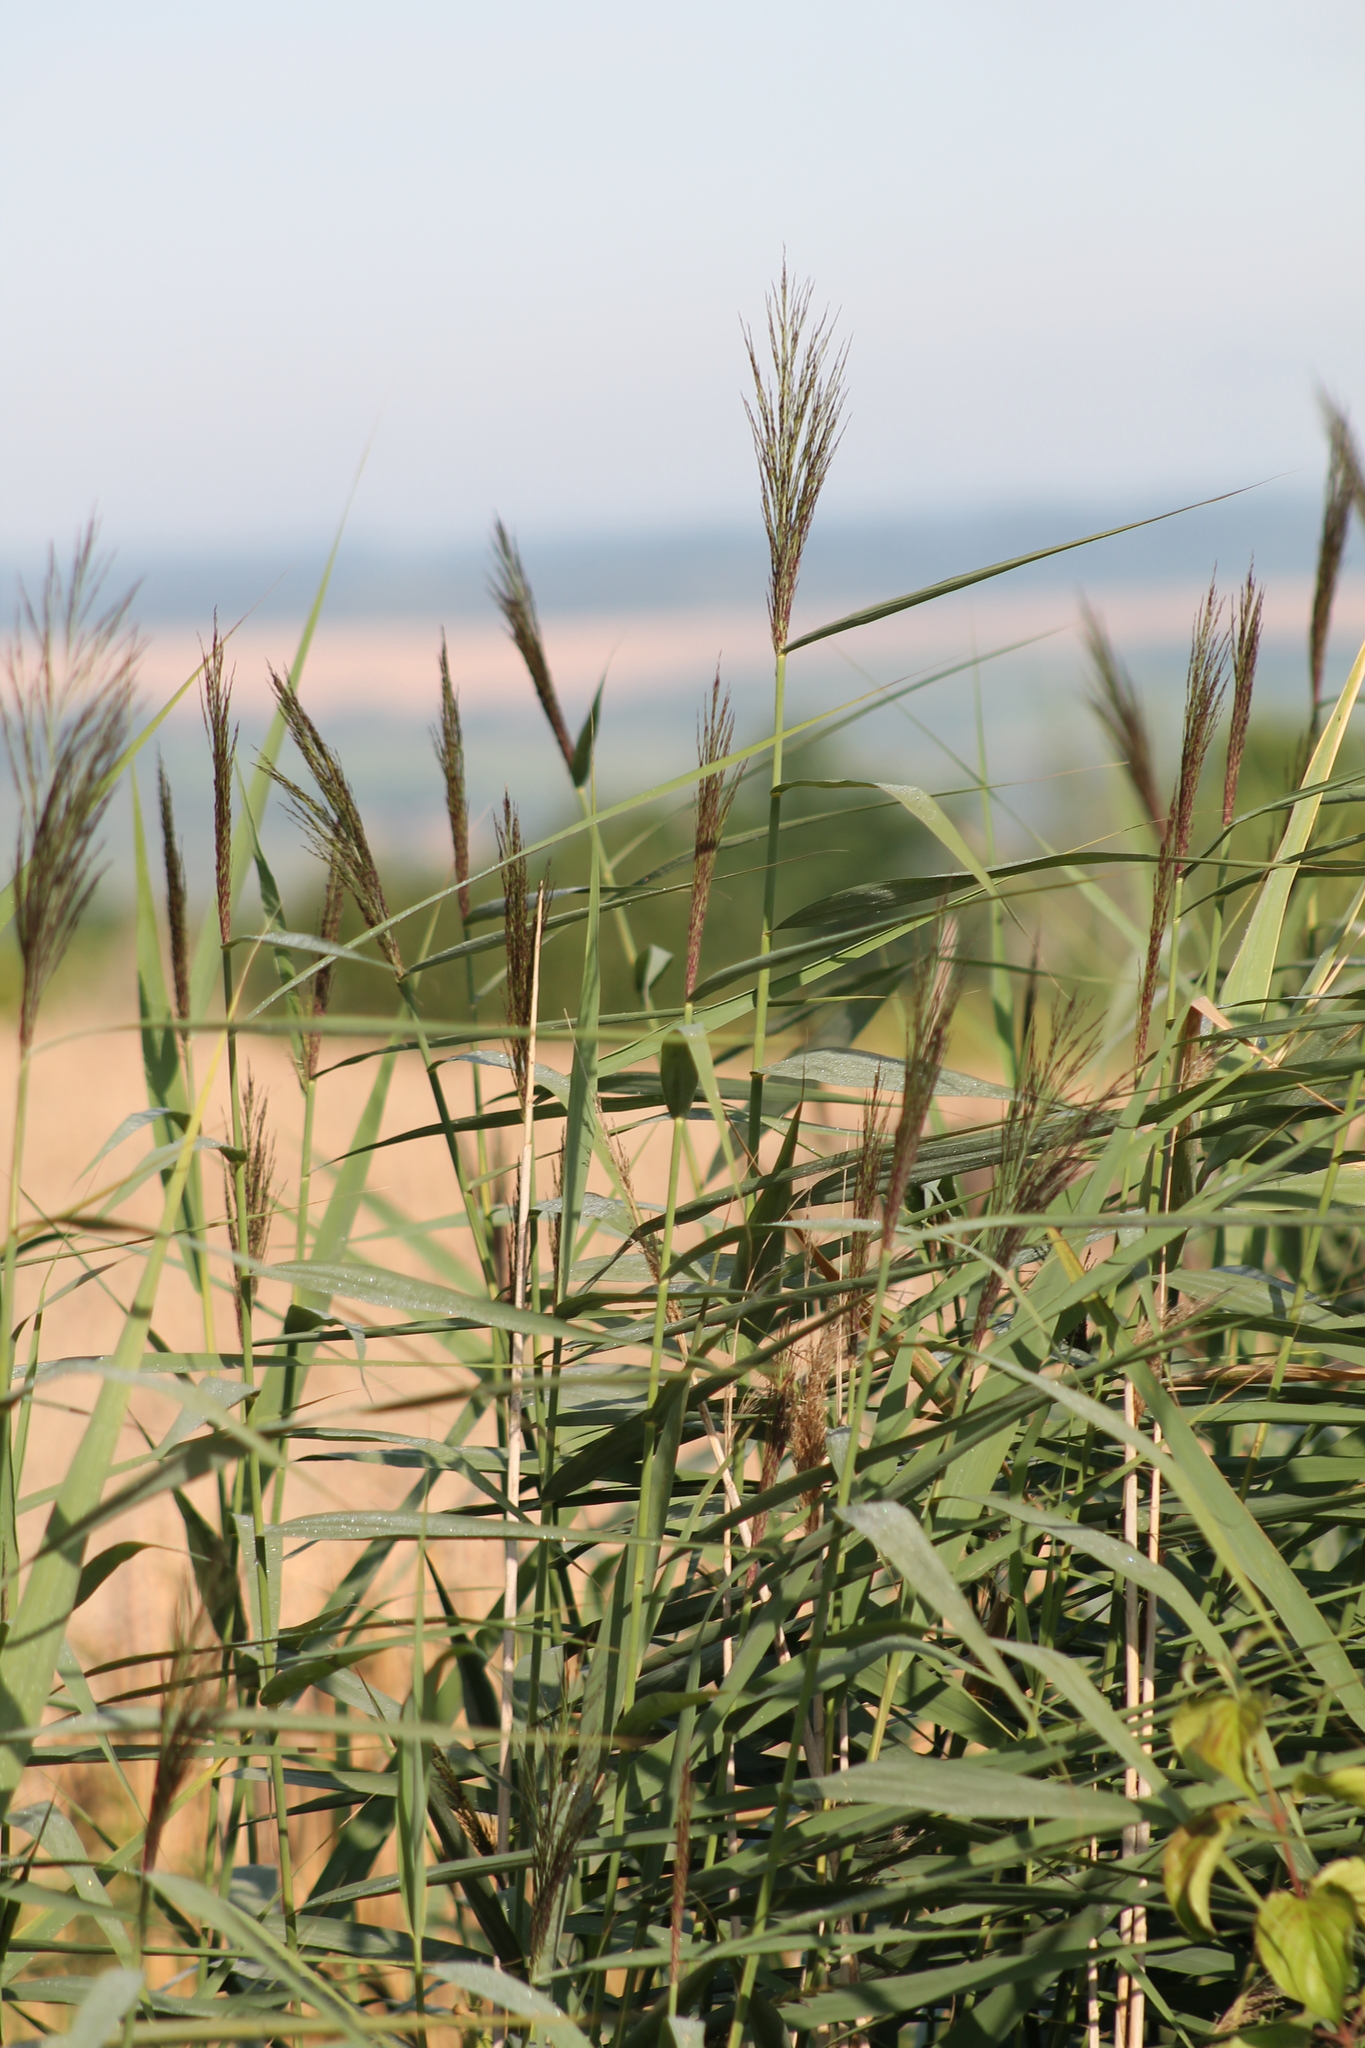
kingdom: Plantae
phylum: Tracheophyta
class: Liliopsida
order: Poales
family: Poaceae
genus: Phragmites
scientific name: Phragmites australis
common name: Common reed
